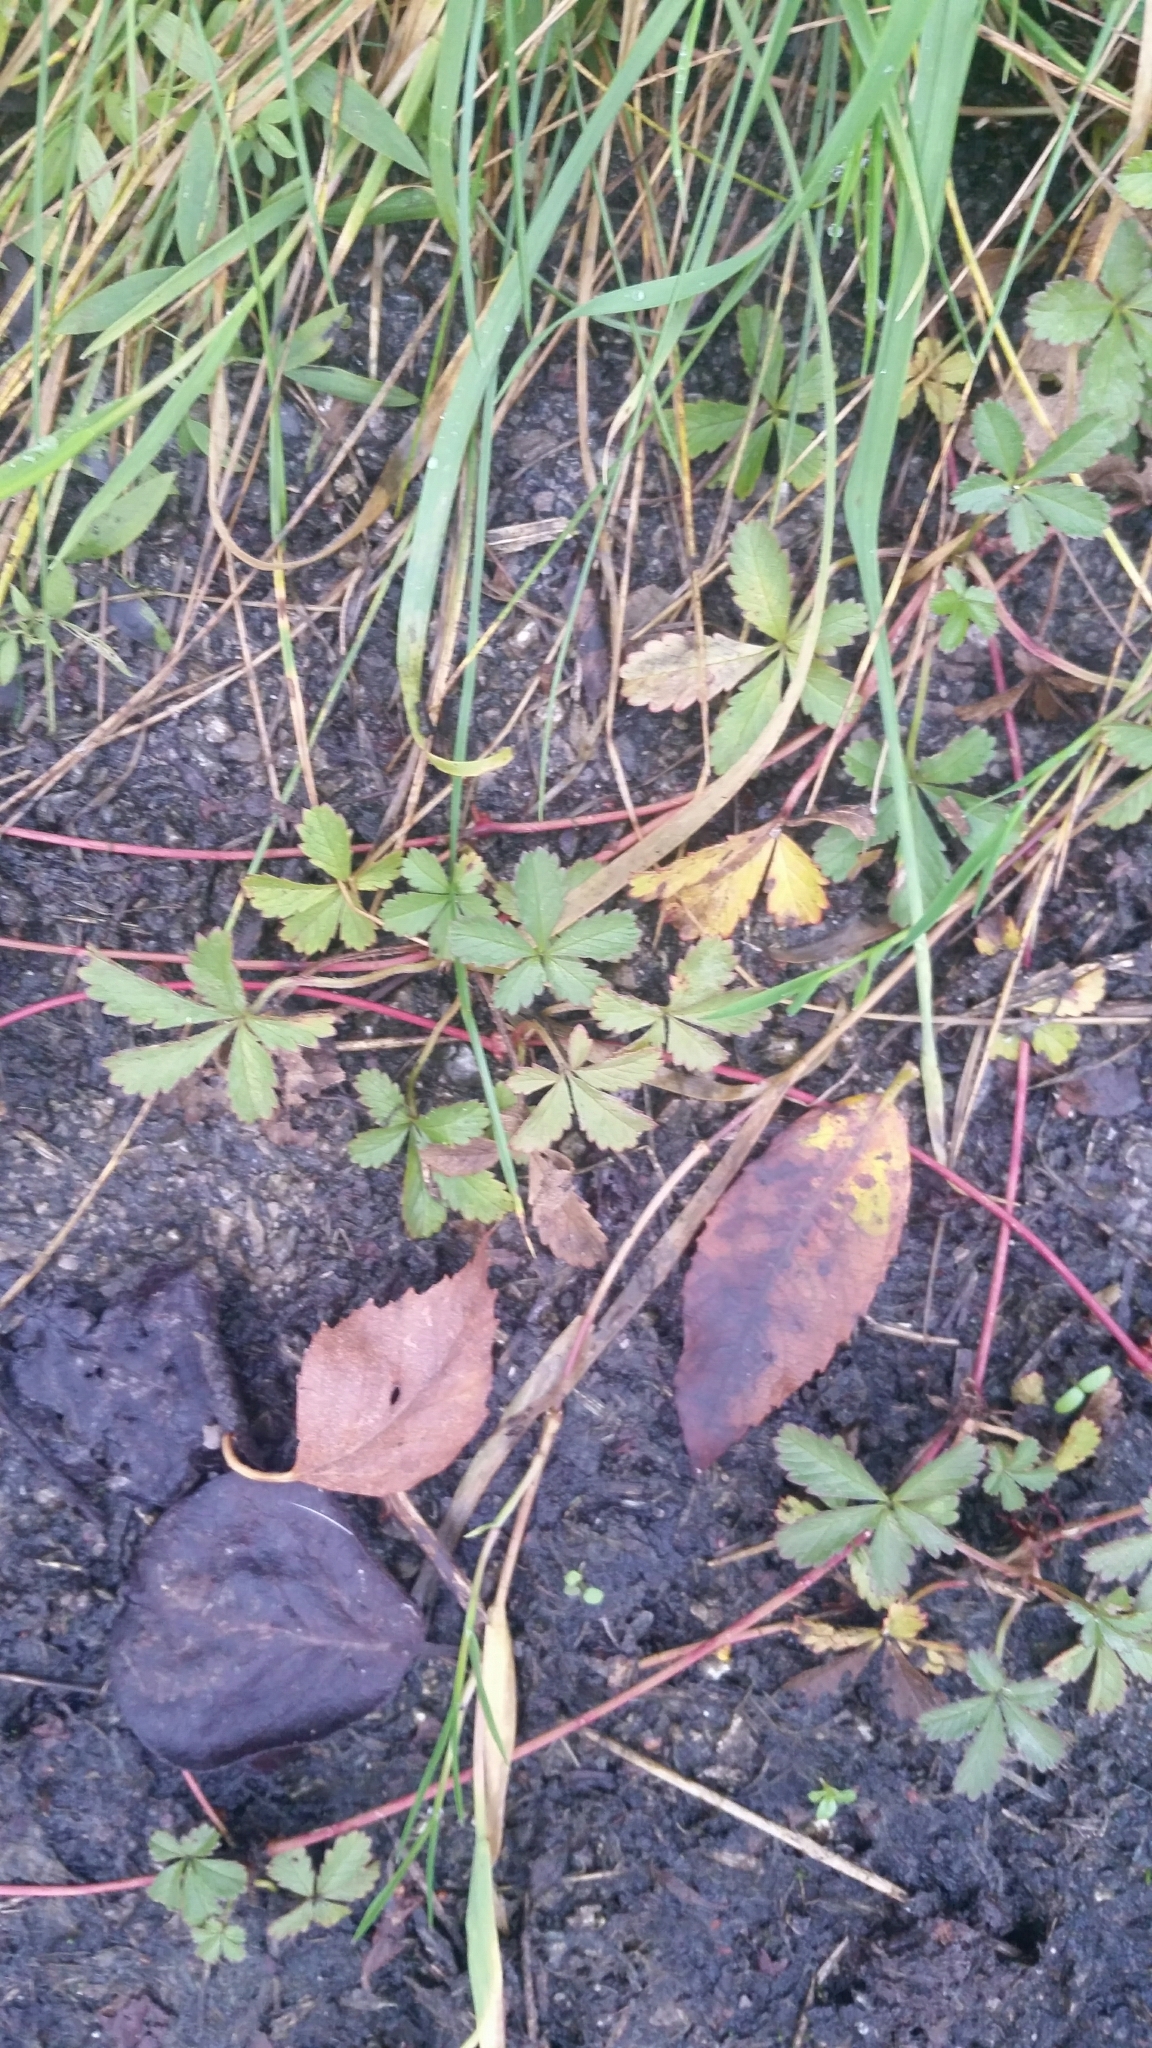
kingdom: Plantae
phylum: Tracheophyta
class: Magnoliopsida
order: Rosales
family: Rosaceae
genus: Potentilla
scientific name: Potentilla reptans
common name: Creeping cinquefoil
